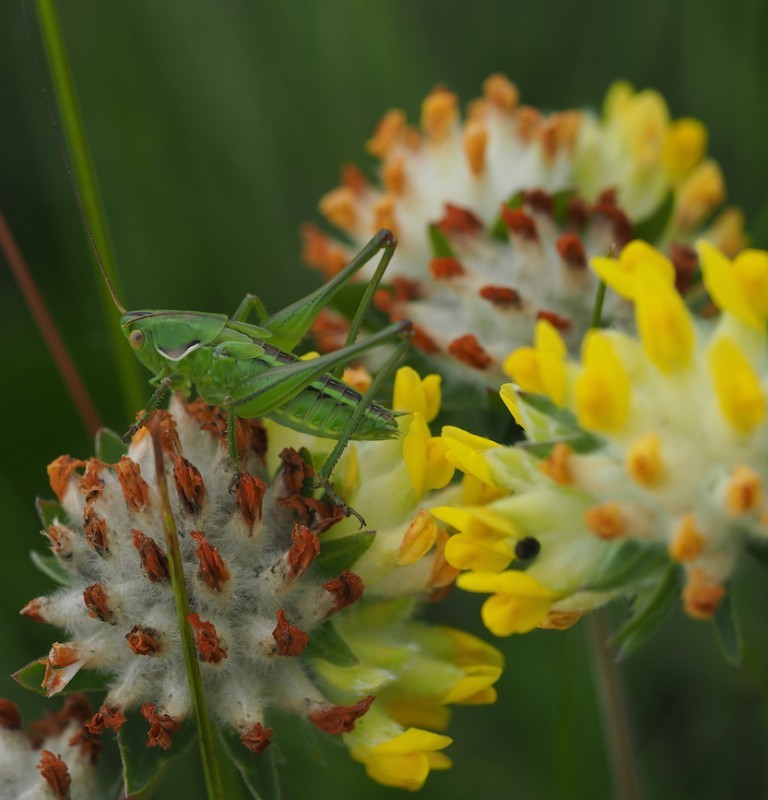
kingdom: Animalia
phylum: Arthropoda
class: Insecta
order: Orthoptera
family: Tettigoniidae
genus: Gampsocleis
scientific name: Gampsocleis glabra
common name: Heath bushcricket
